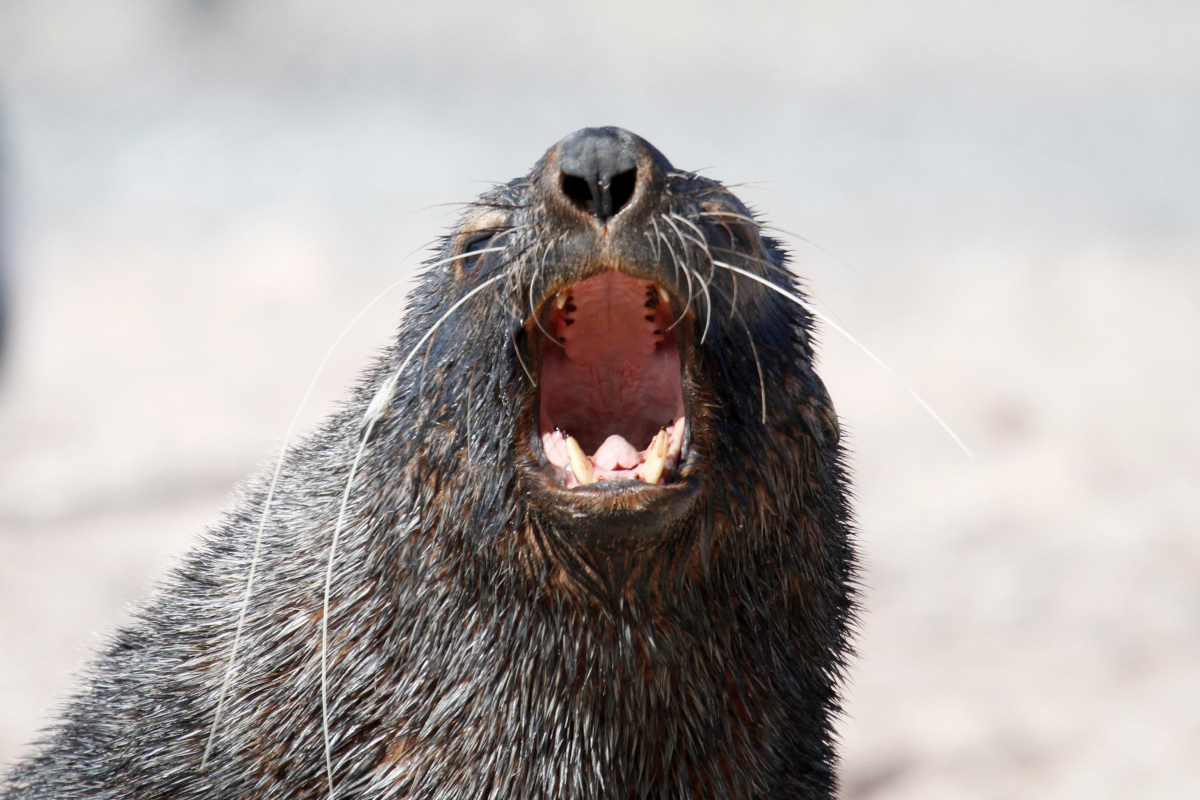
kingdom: Animalia
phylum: Chordata
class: Mammalia
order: Carnivora
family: Otariidae
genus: Arctocephalus
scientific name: Arctocephalus gazella
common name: Antarctic fur seal
